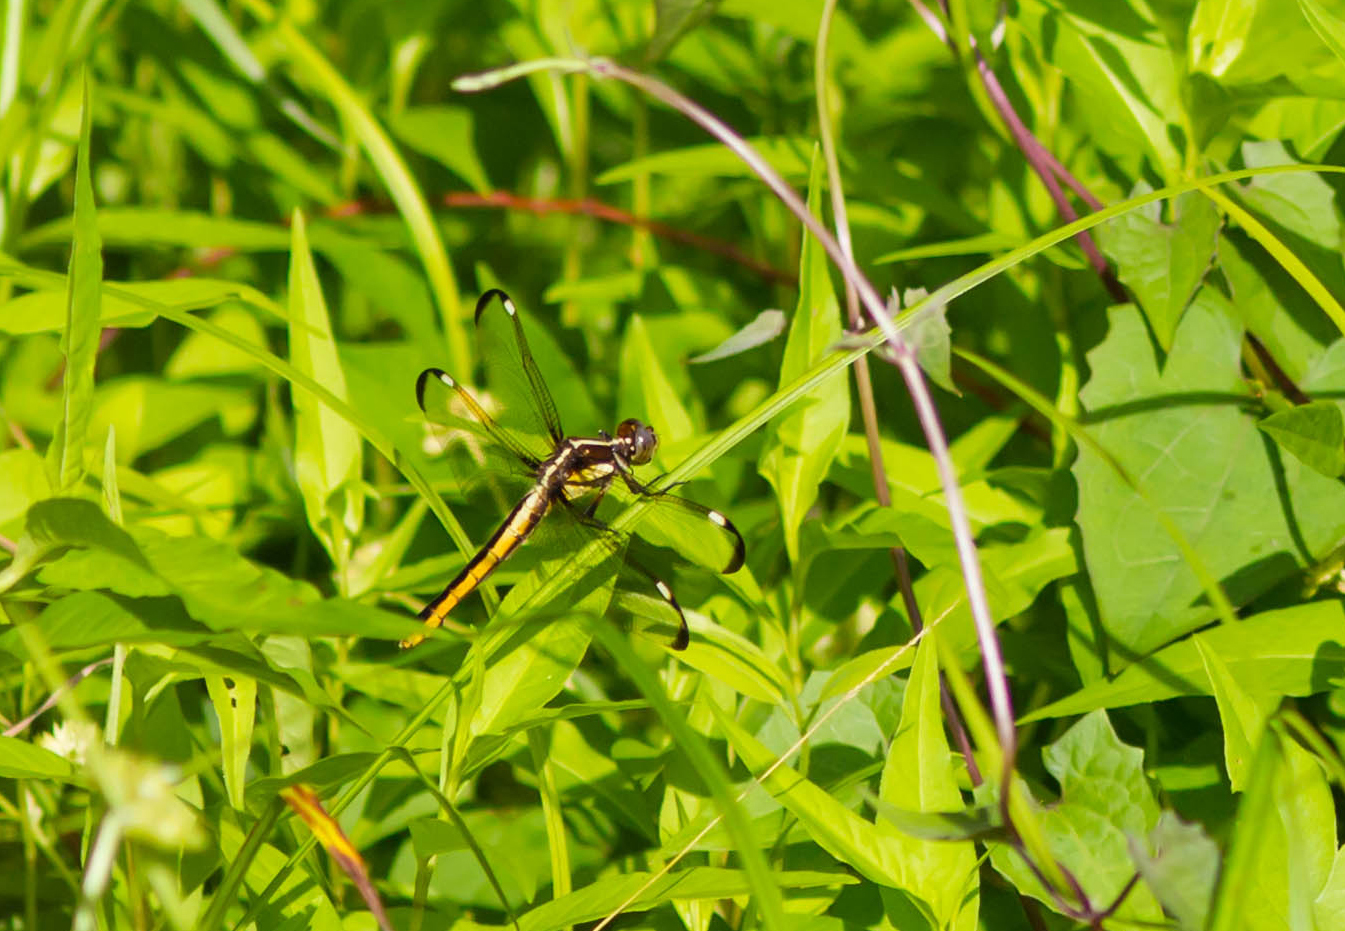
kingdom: Animalia
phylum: Arthropoda
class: Insecta
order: Odonata
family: Libellulidae
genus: Libellula
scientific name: Libellula cyanea
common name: Spangled skimmer
